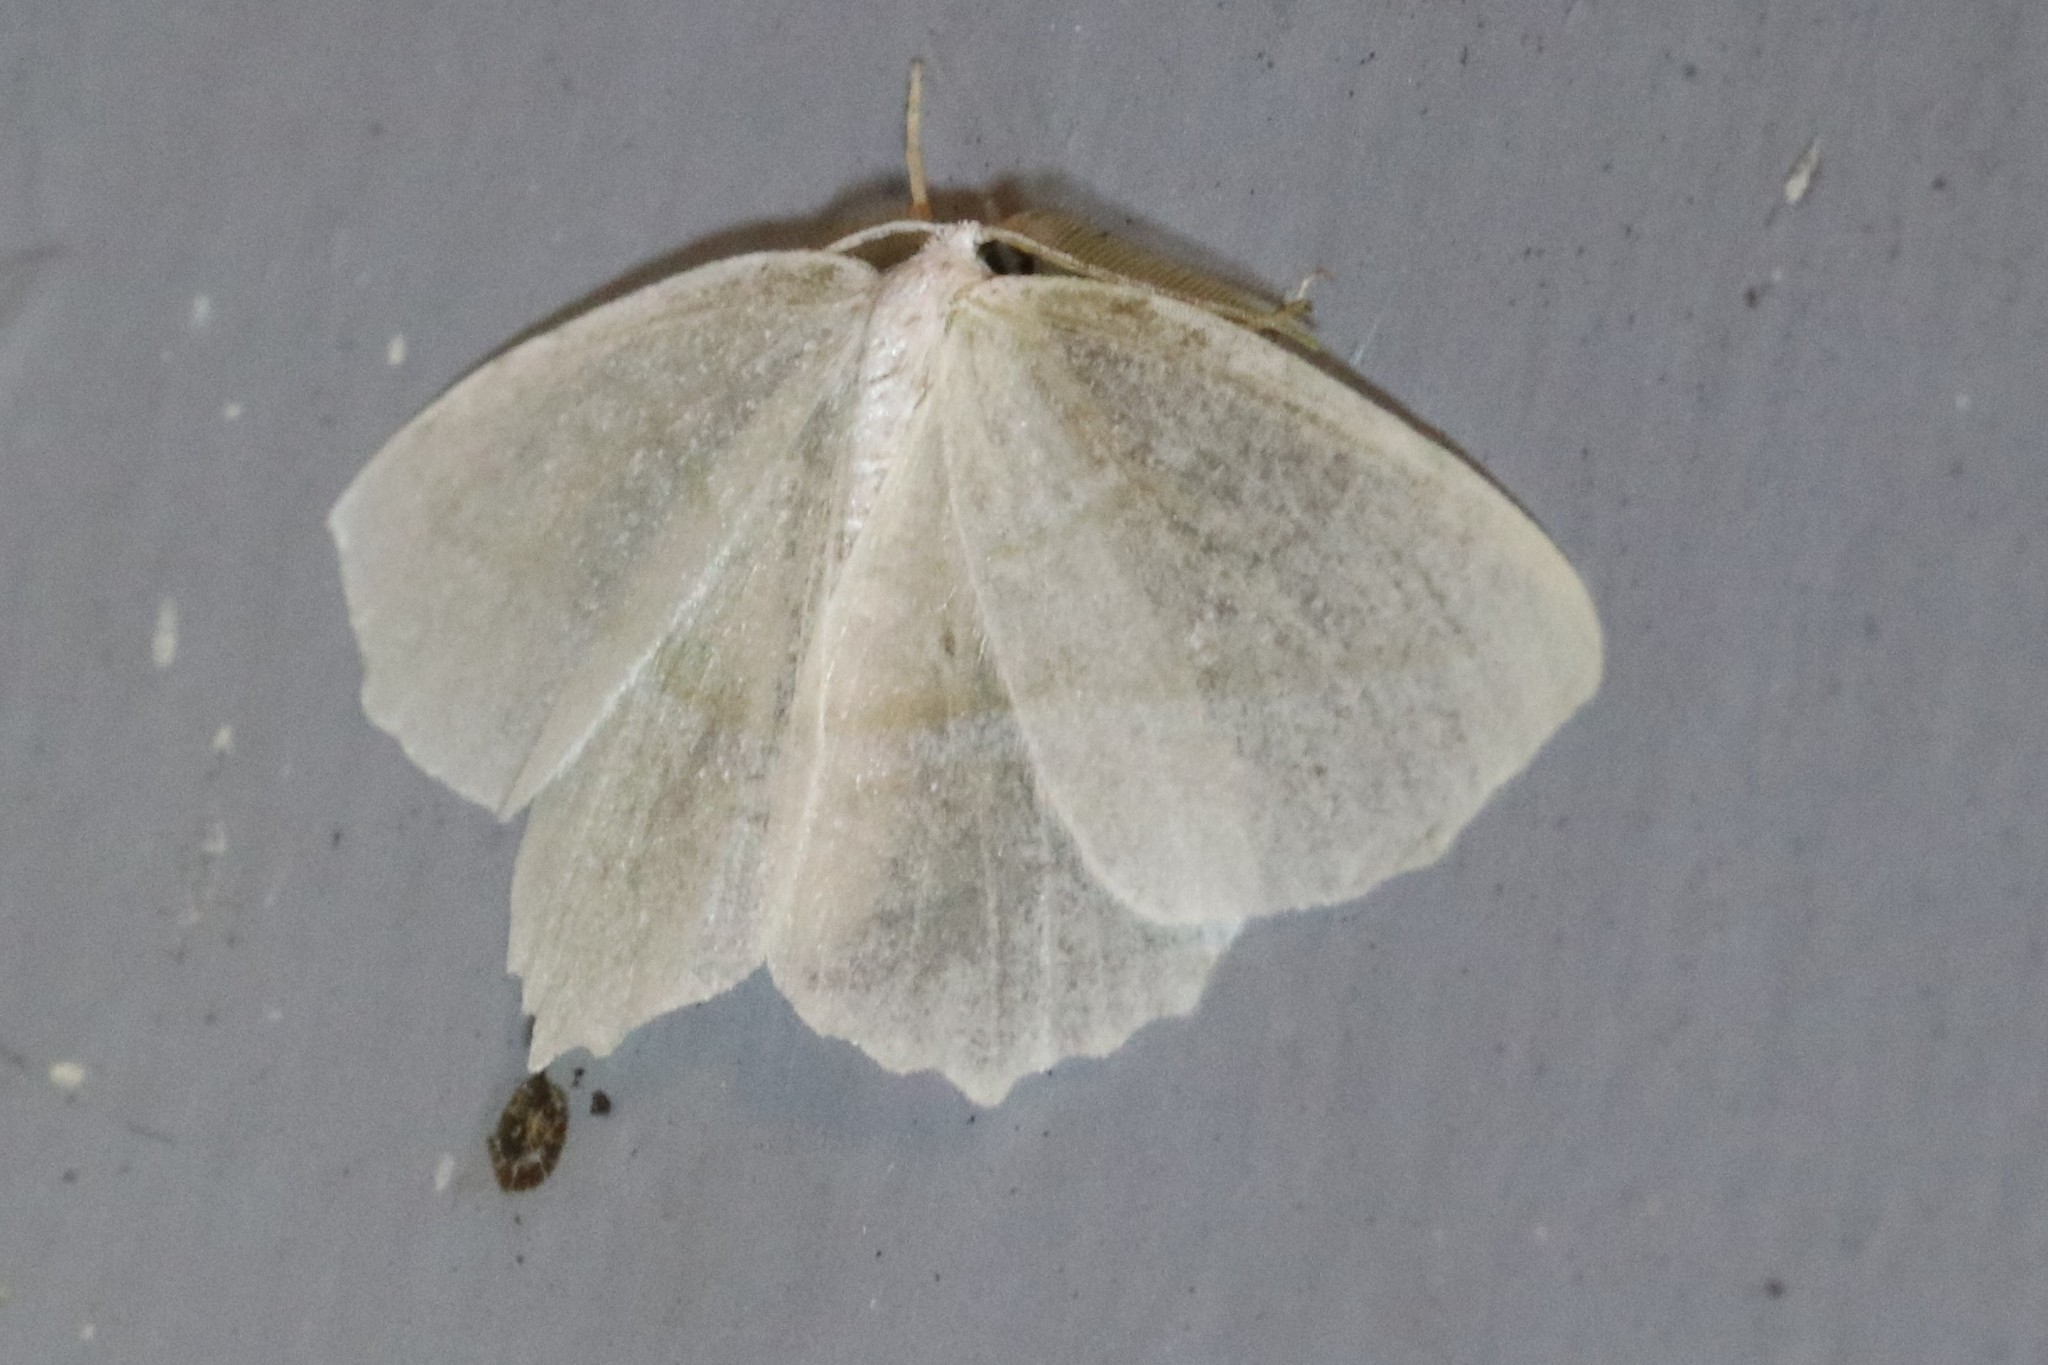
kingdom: Animalia
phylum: Arthropoda
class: Insecta
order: Lepidoptera
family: Geometridae
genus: Campaea
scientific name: Campaea perlata
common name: Fringed looper
